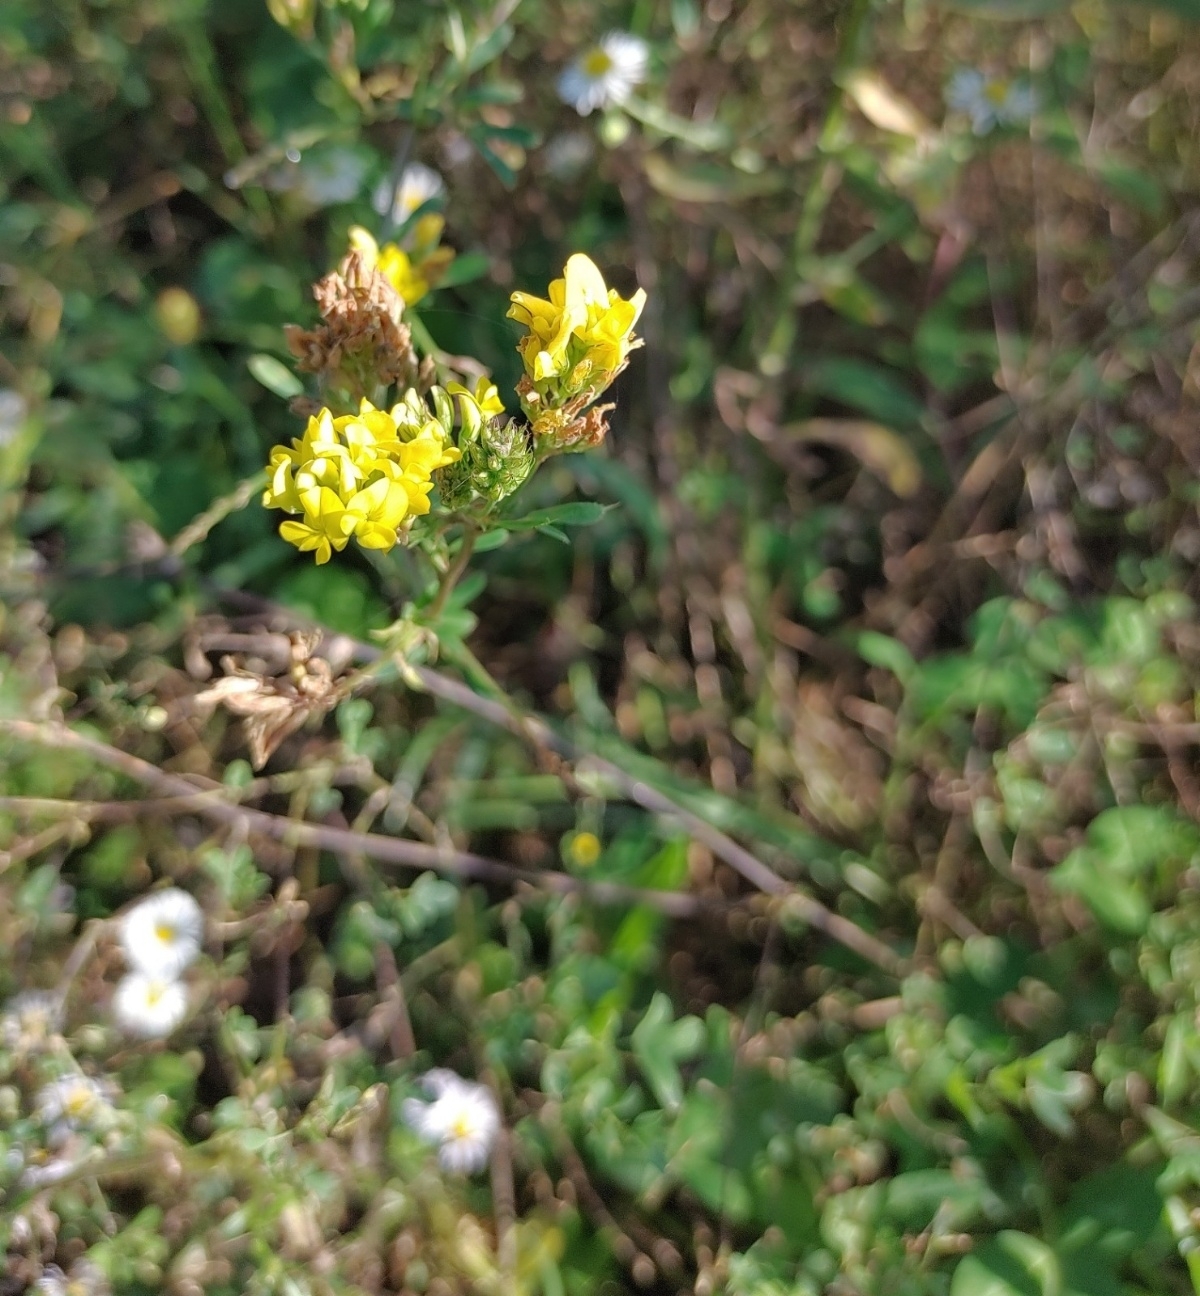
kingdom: Plantae
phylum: Tracheophyta
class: Magnoliopsida
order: Fabales
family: Fabaceae
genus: Medicago
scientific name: Medicago falcata
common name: Sickle medick
